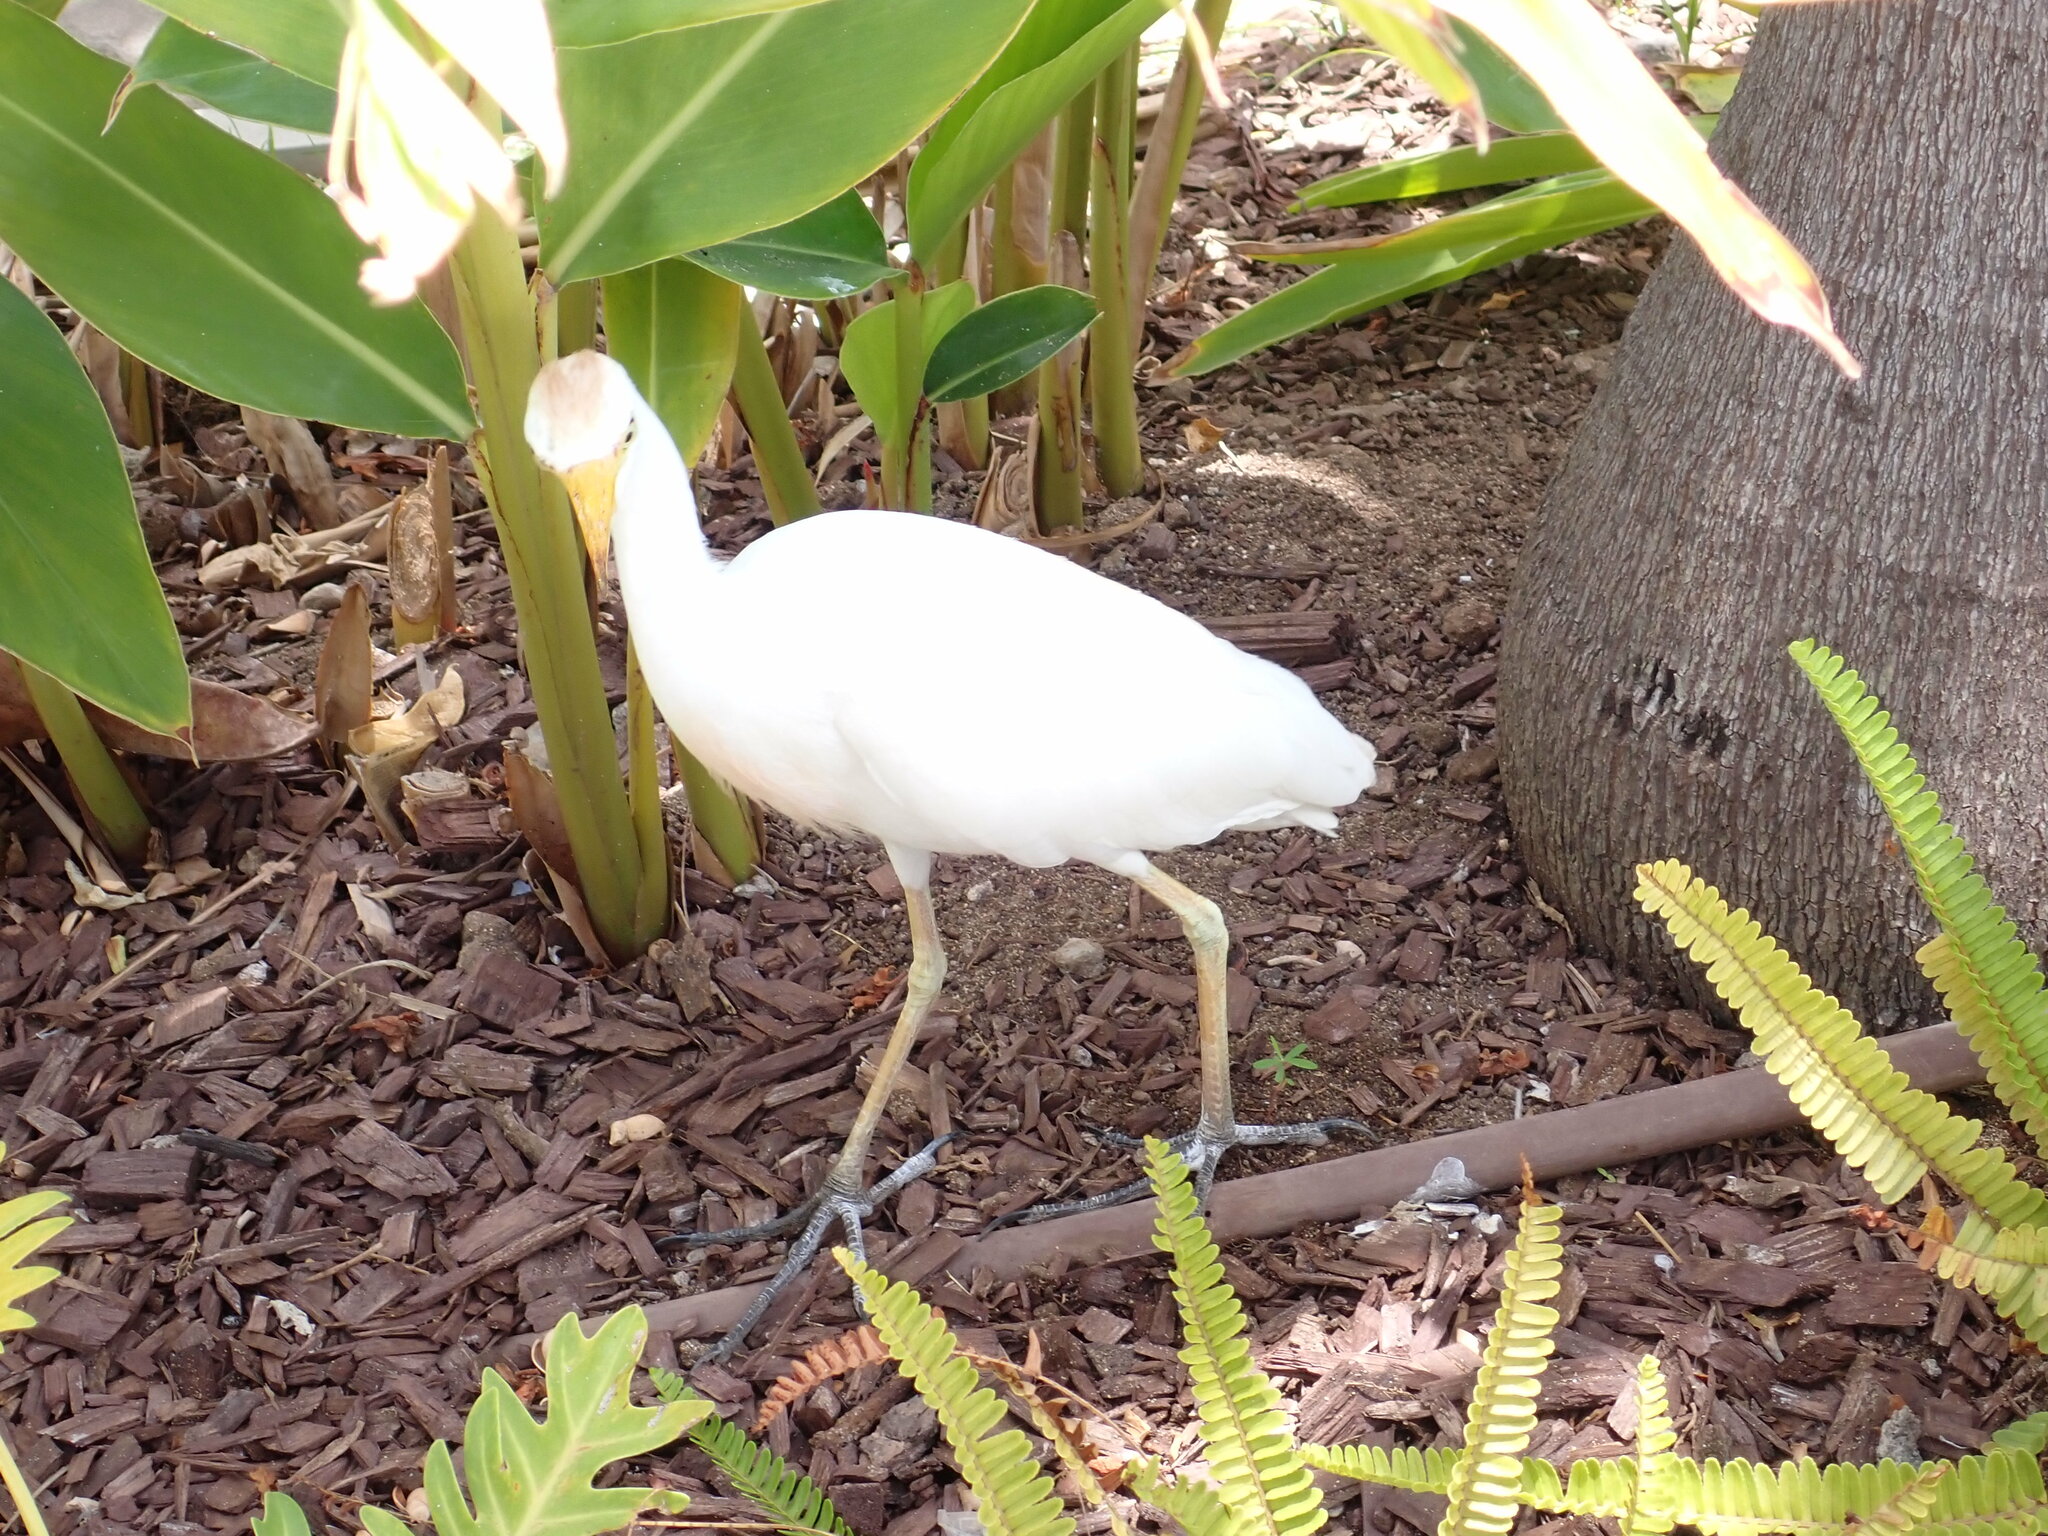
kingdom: Animalia
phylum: Chordata
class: Aves
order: Pelecaniformes
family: Ardeidae
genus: Bubulcus
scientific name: Bubulcus ibis
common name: Cattle egret
